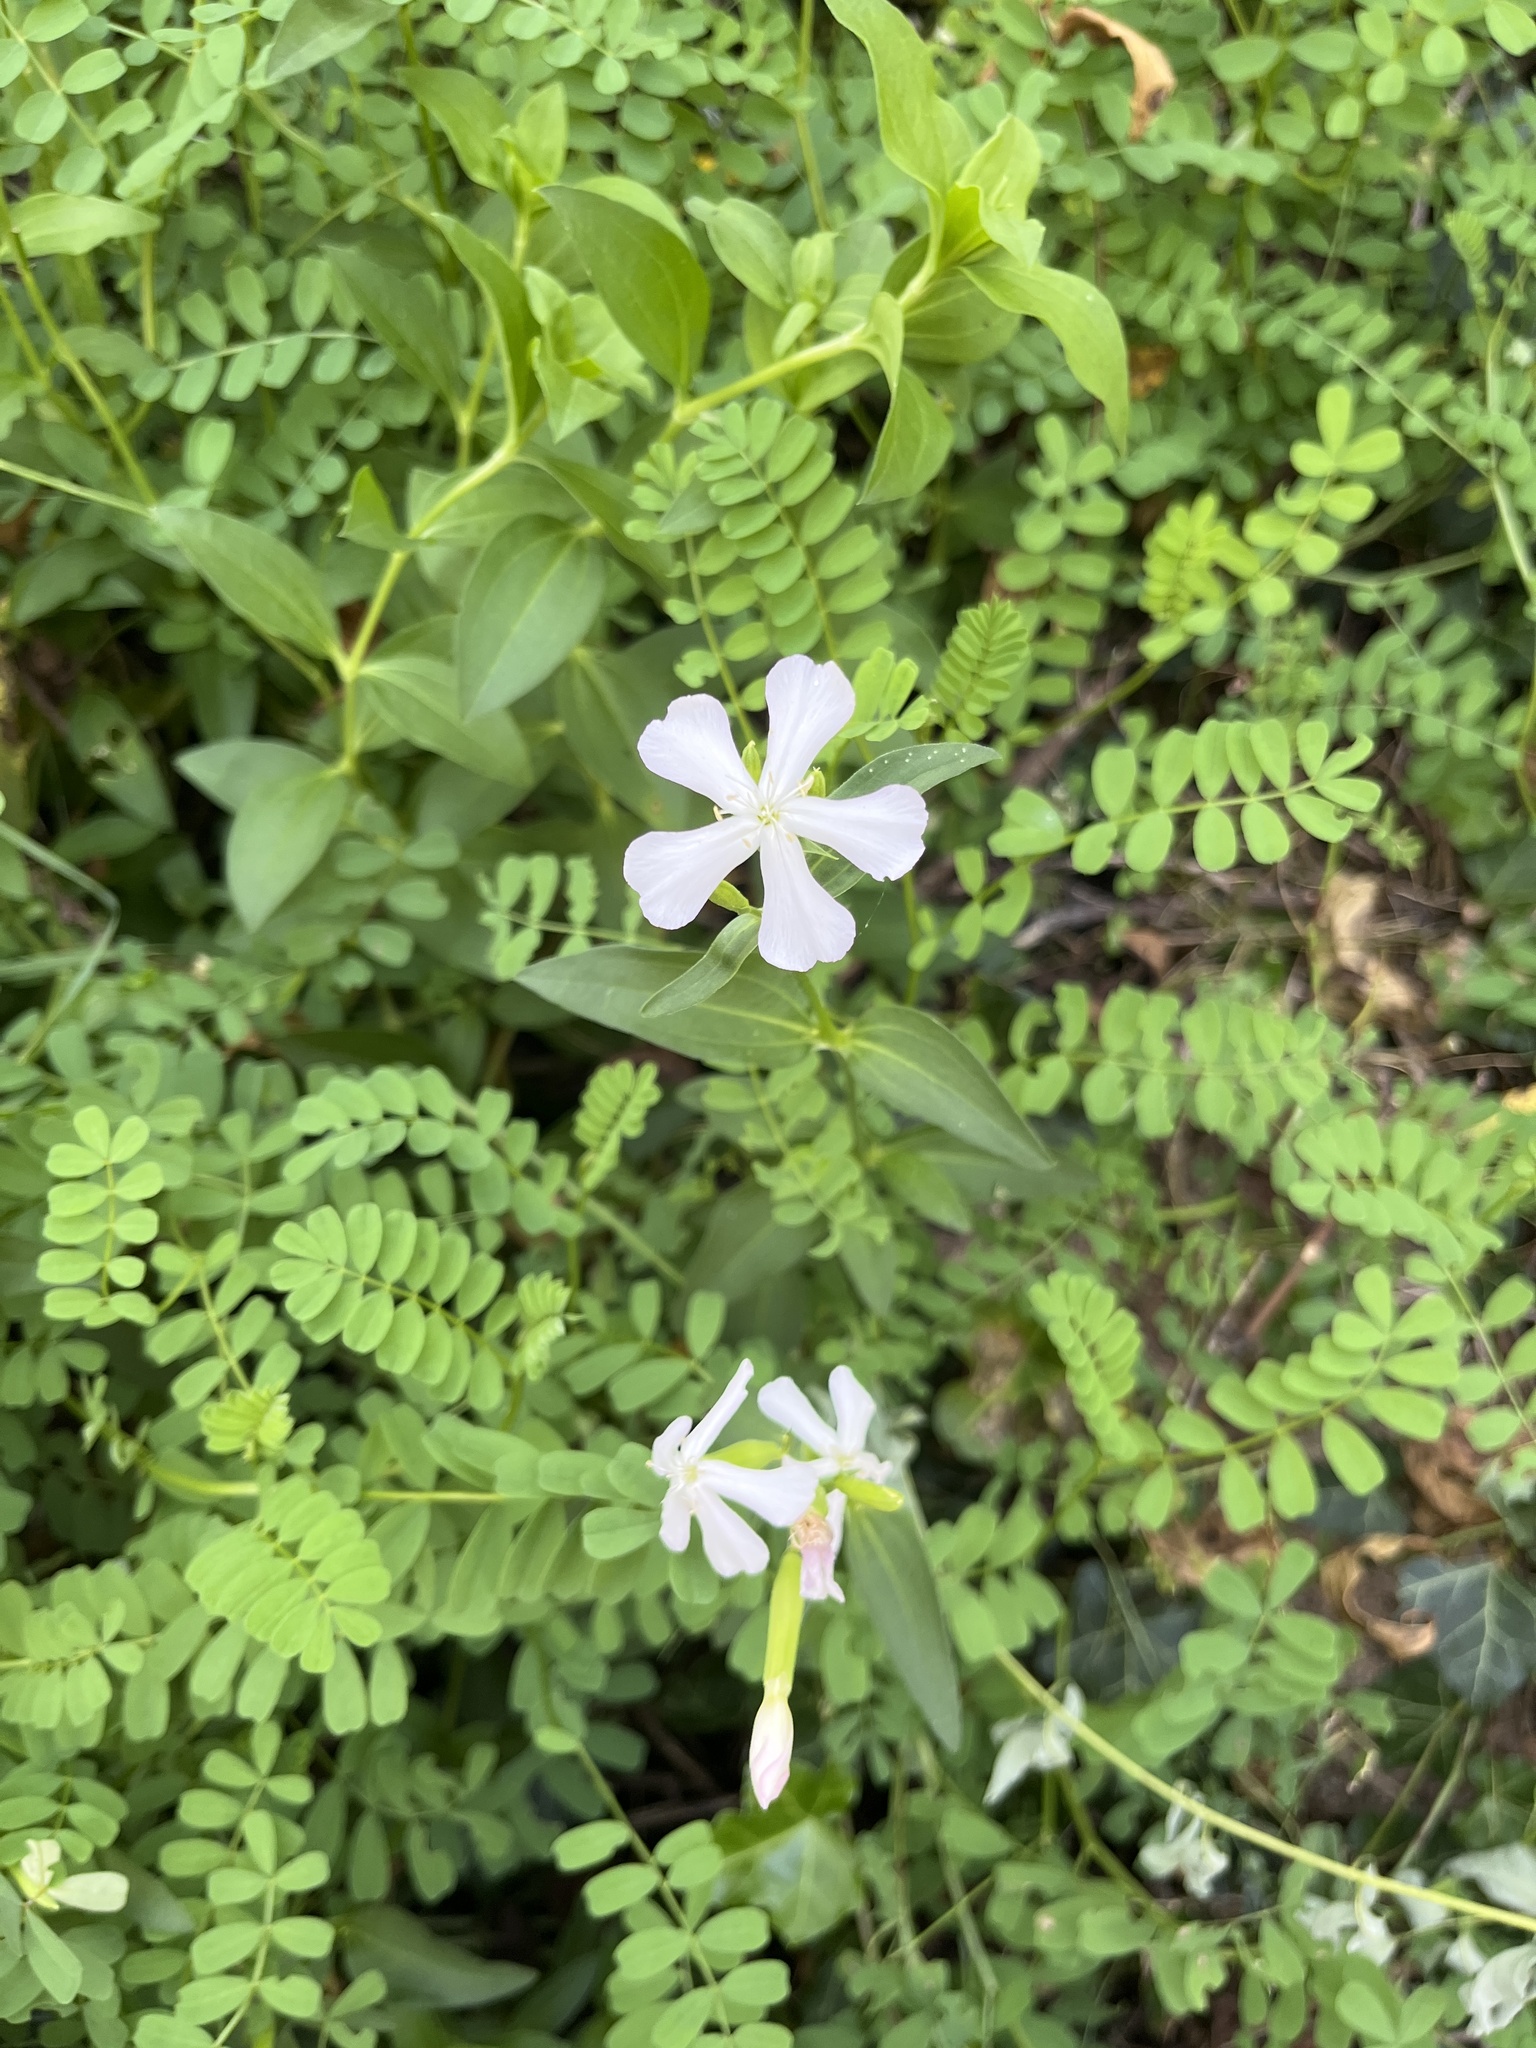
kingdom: Plantae
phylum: Tracheophyta
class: Magnoliopsida
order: Caryophyllales
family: Caryophyllaceae
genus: Saponaria
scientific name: Saponaria officinalis
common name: Soapwort
